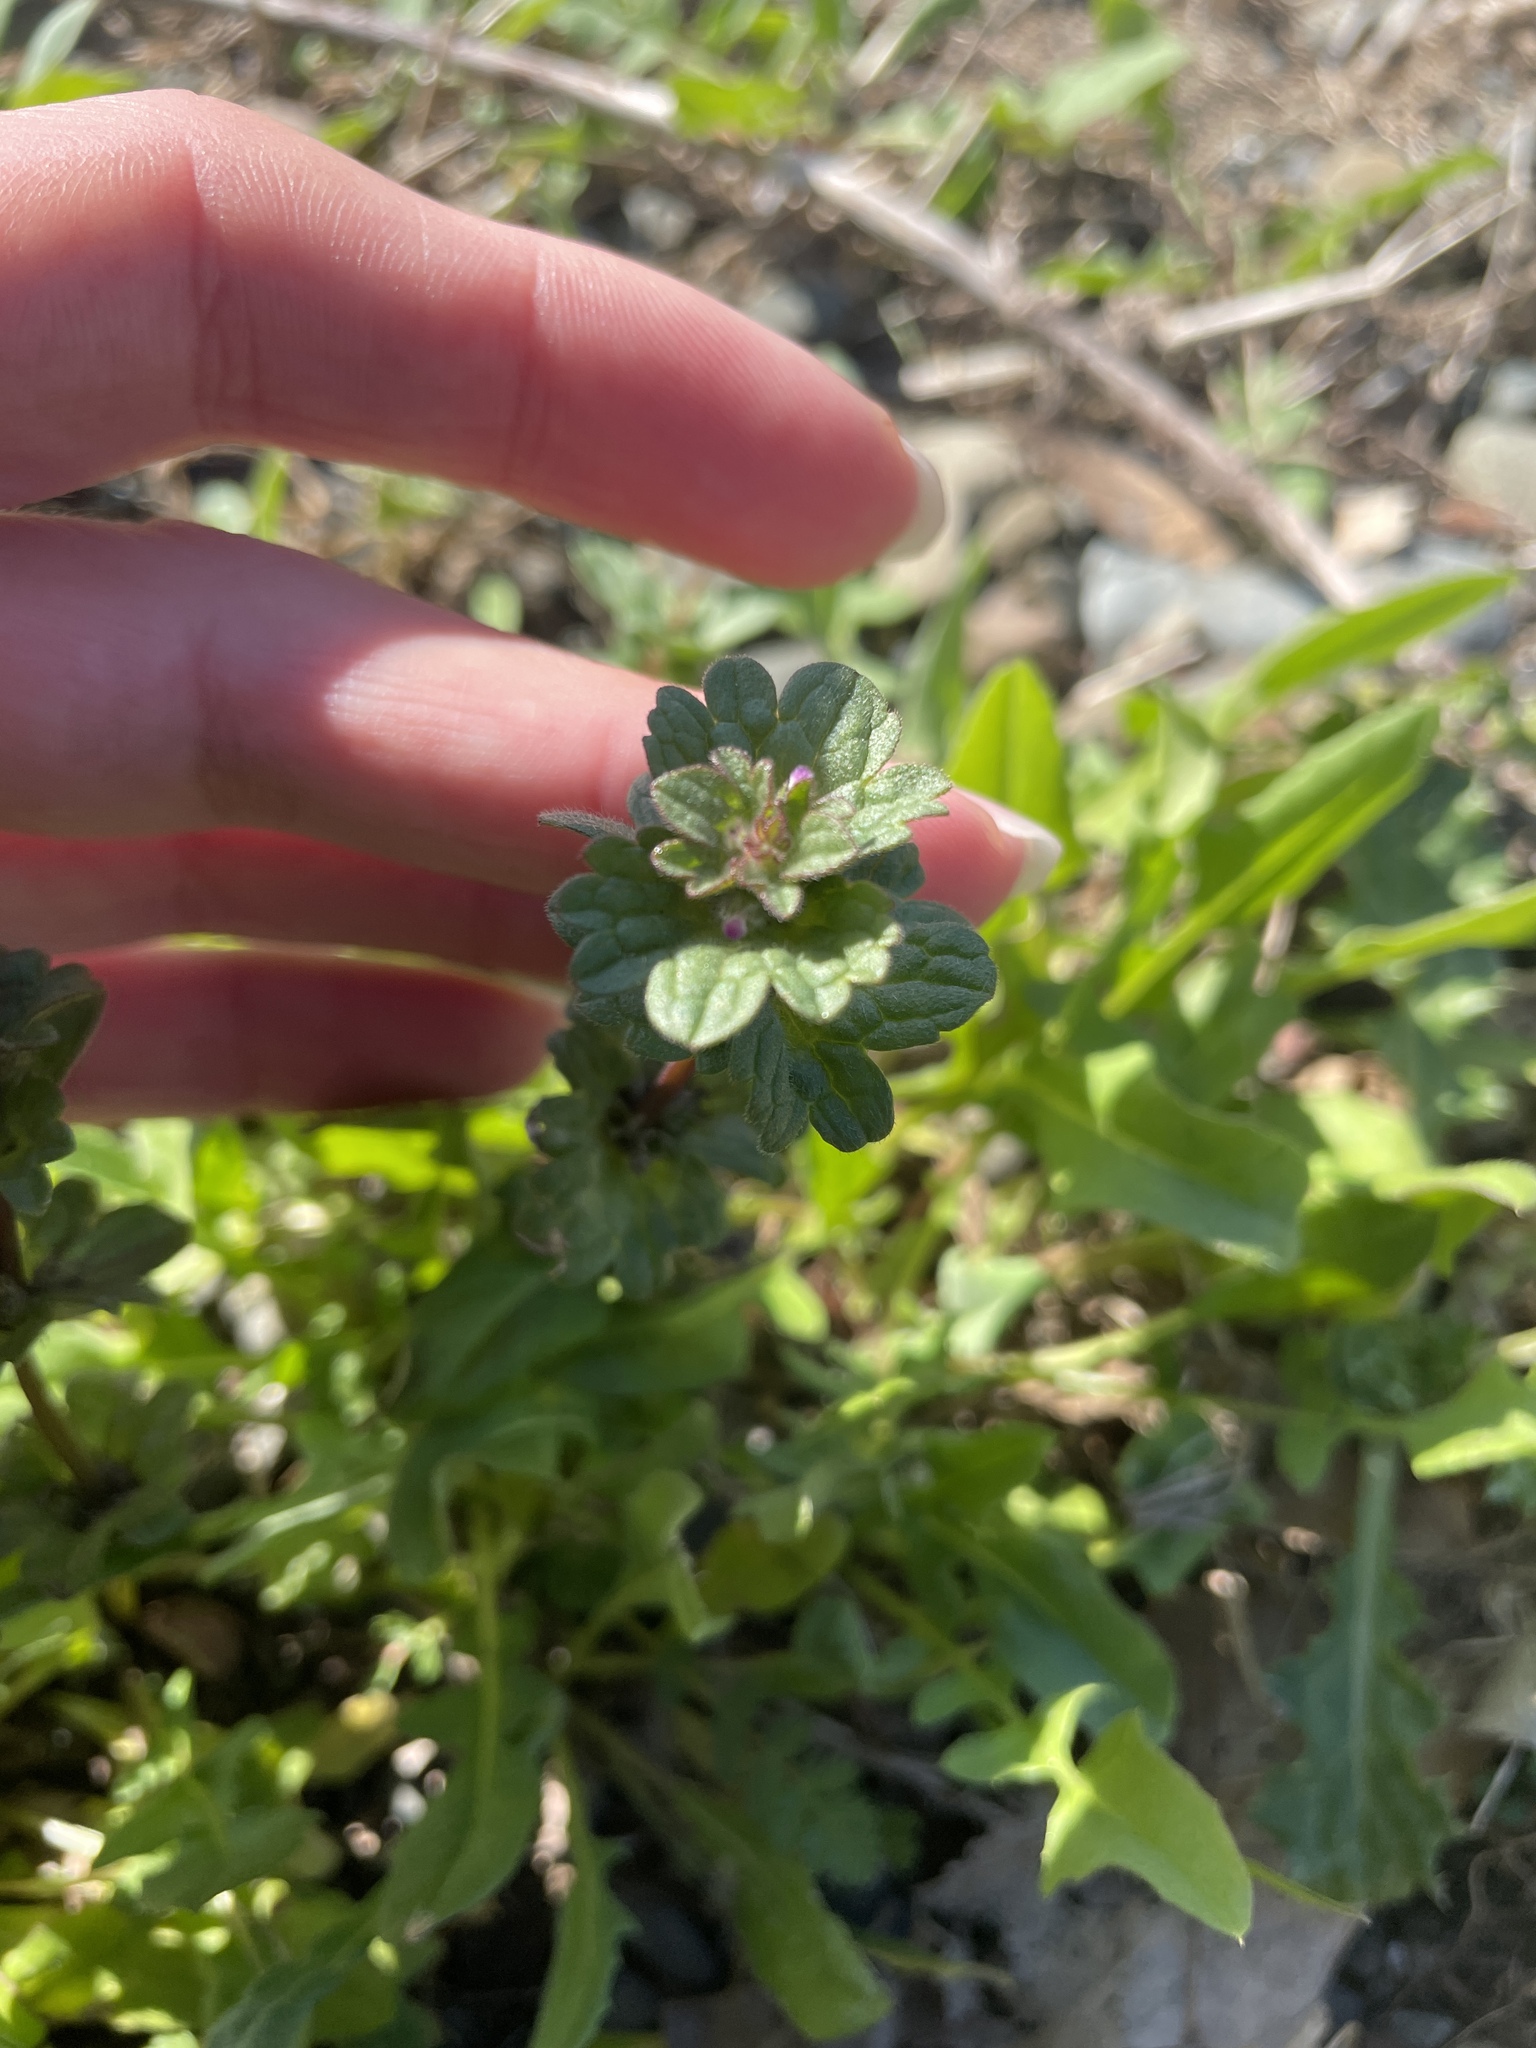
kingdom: Plantae
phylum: Tracheophyta
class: Magnoliopsida
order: Lamiales
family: Lamiaceae
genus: Lamium
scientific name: Lamium amplexicaule
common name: Henbit dead-nettle
